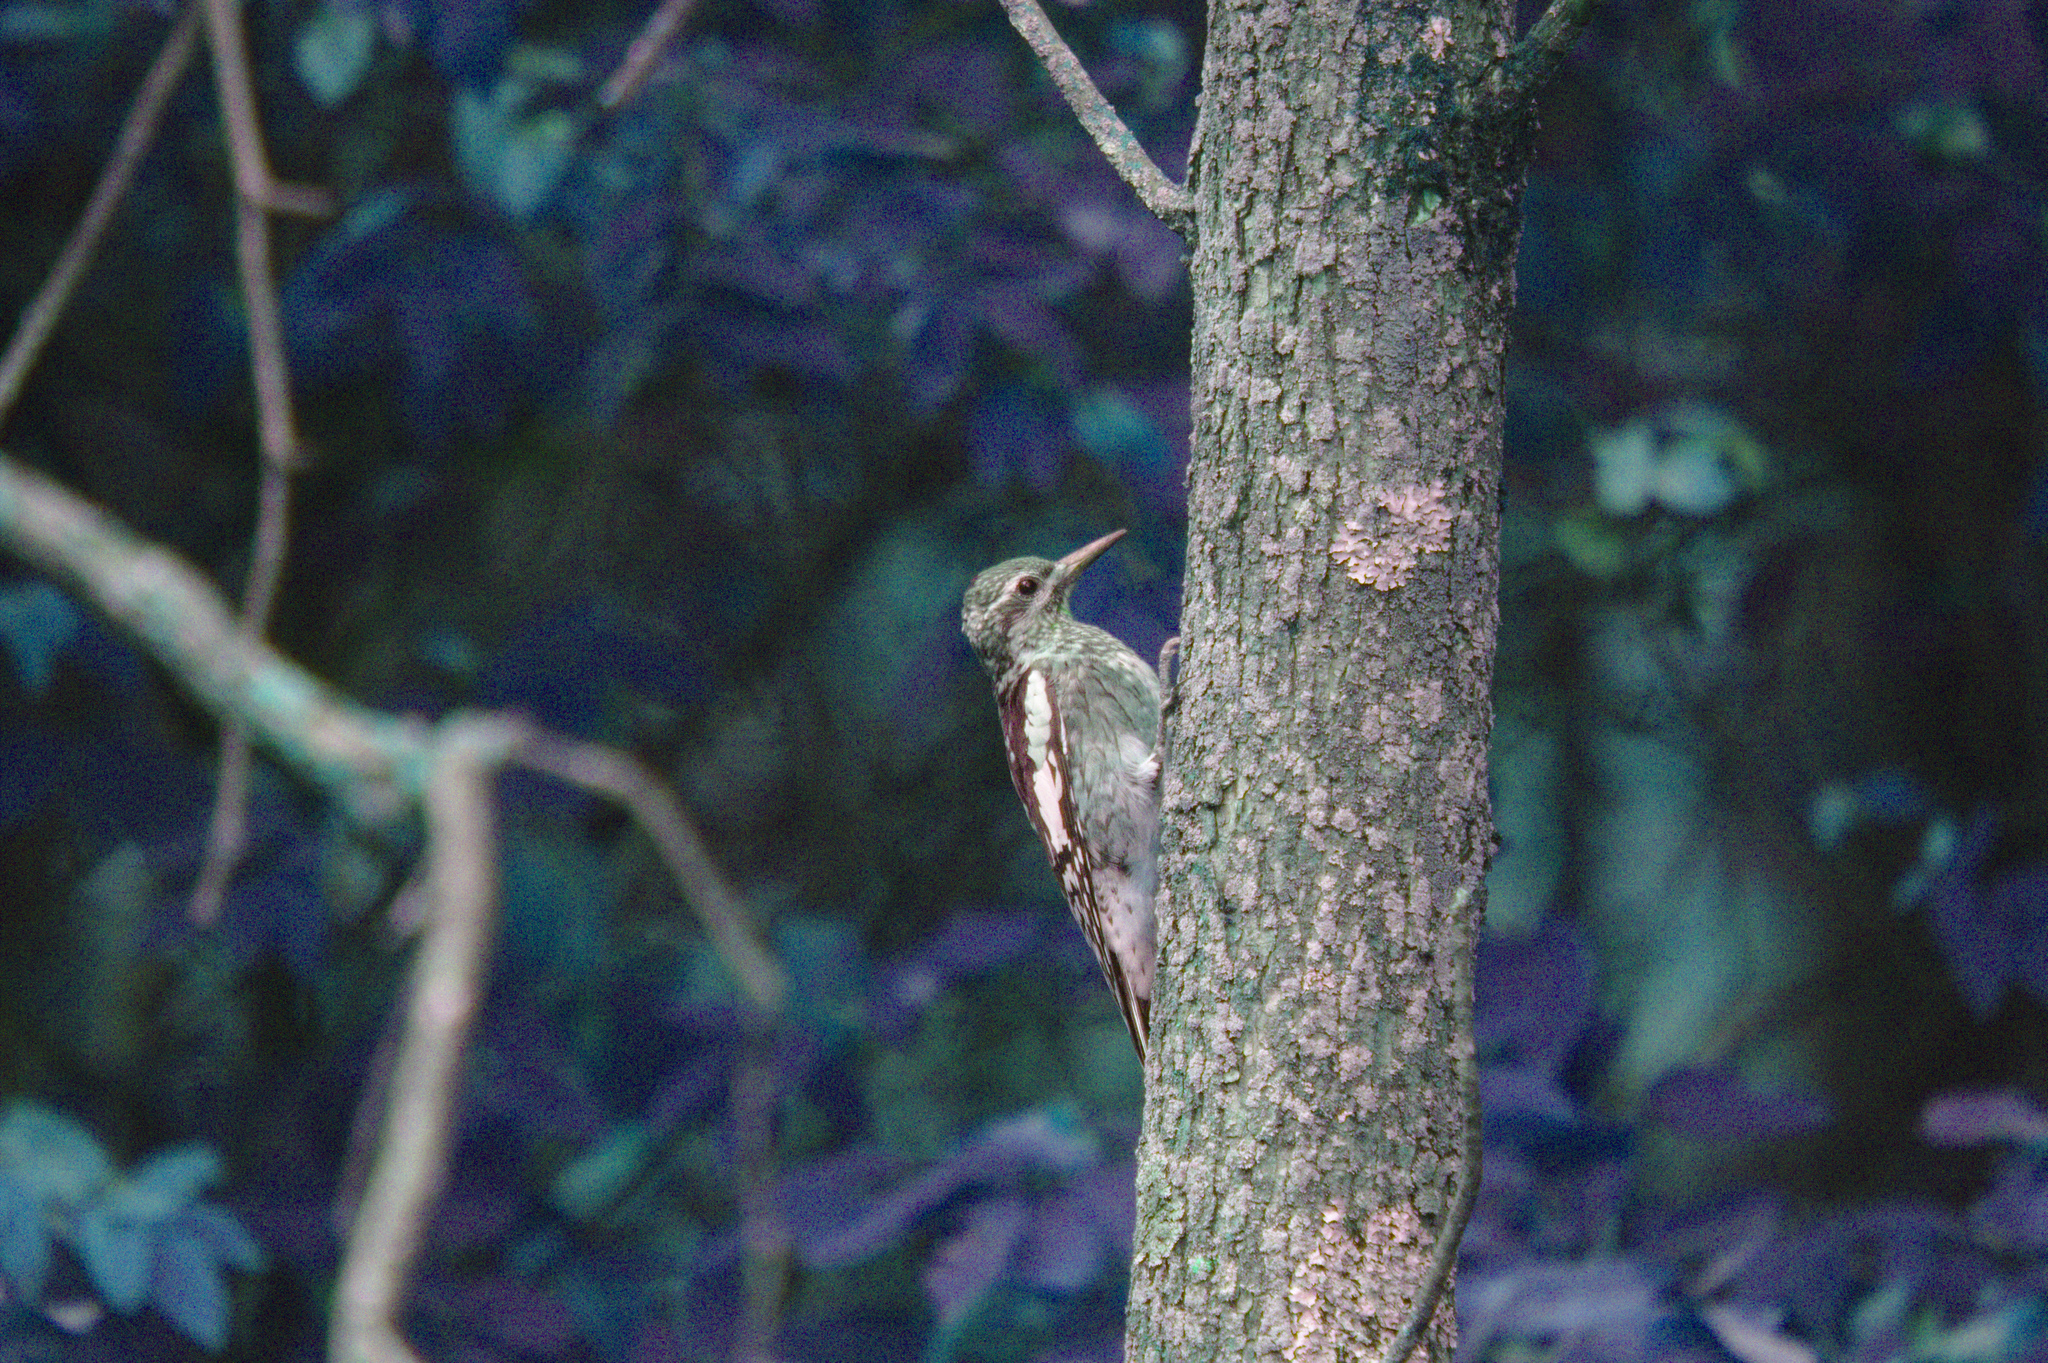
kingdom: Animalia
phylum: Chordata
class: Aves
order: Piciformes
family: Picidae
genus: Sphyrapicus
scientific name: Sphyrapicus varius
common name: Yellow-bellied sapsucker
